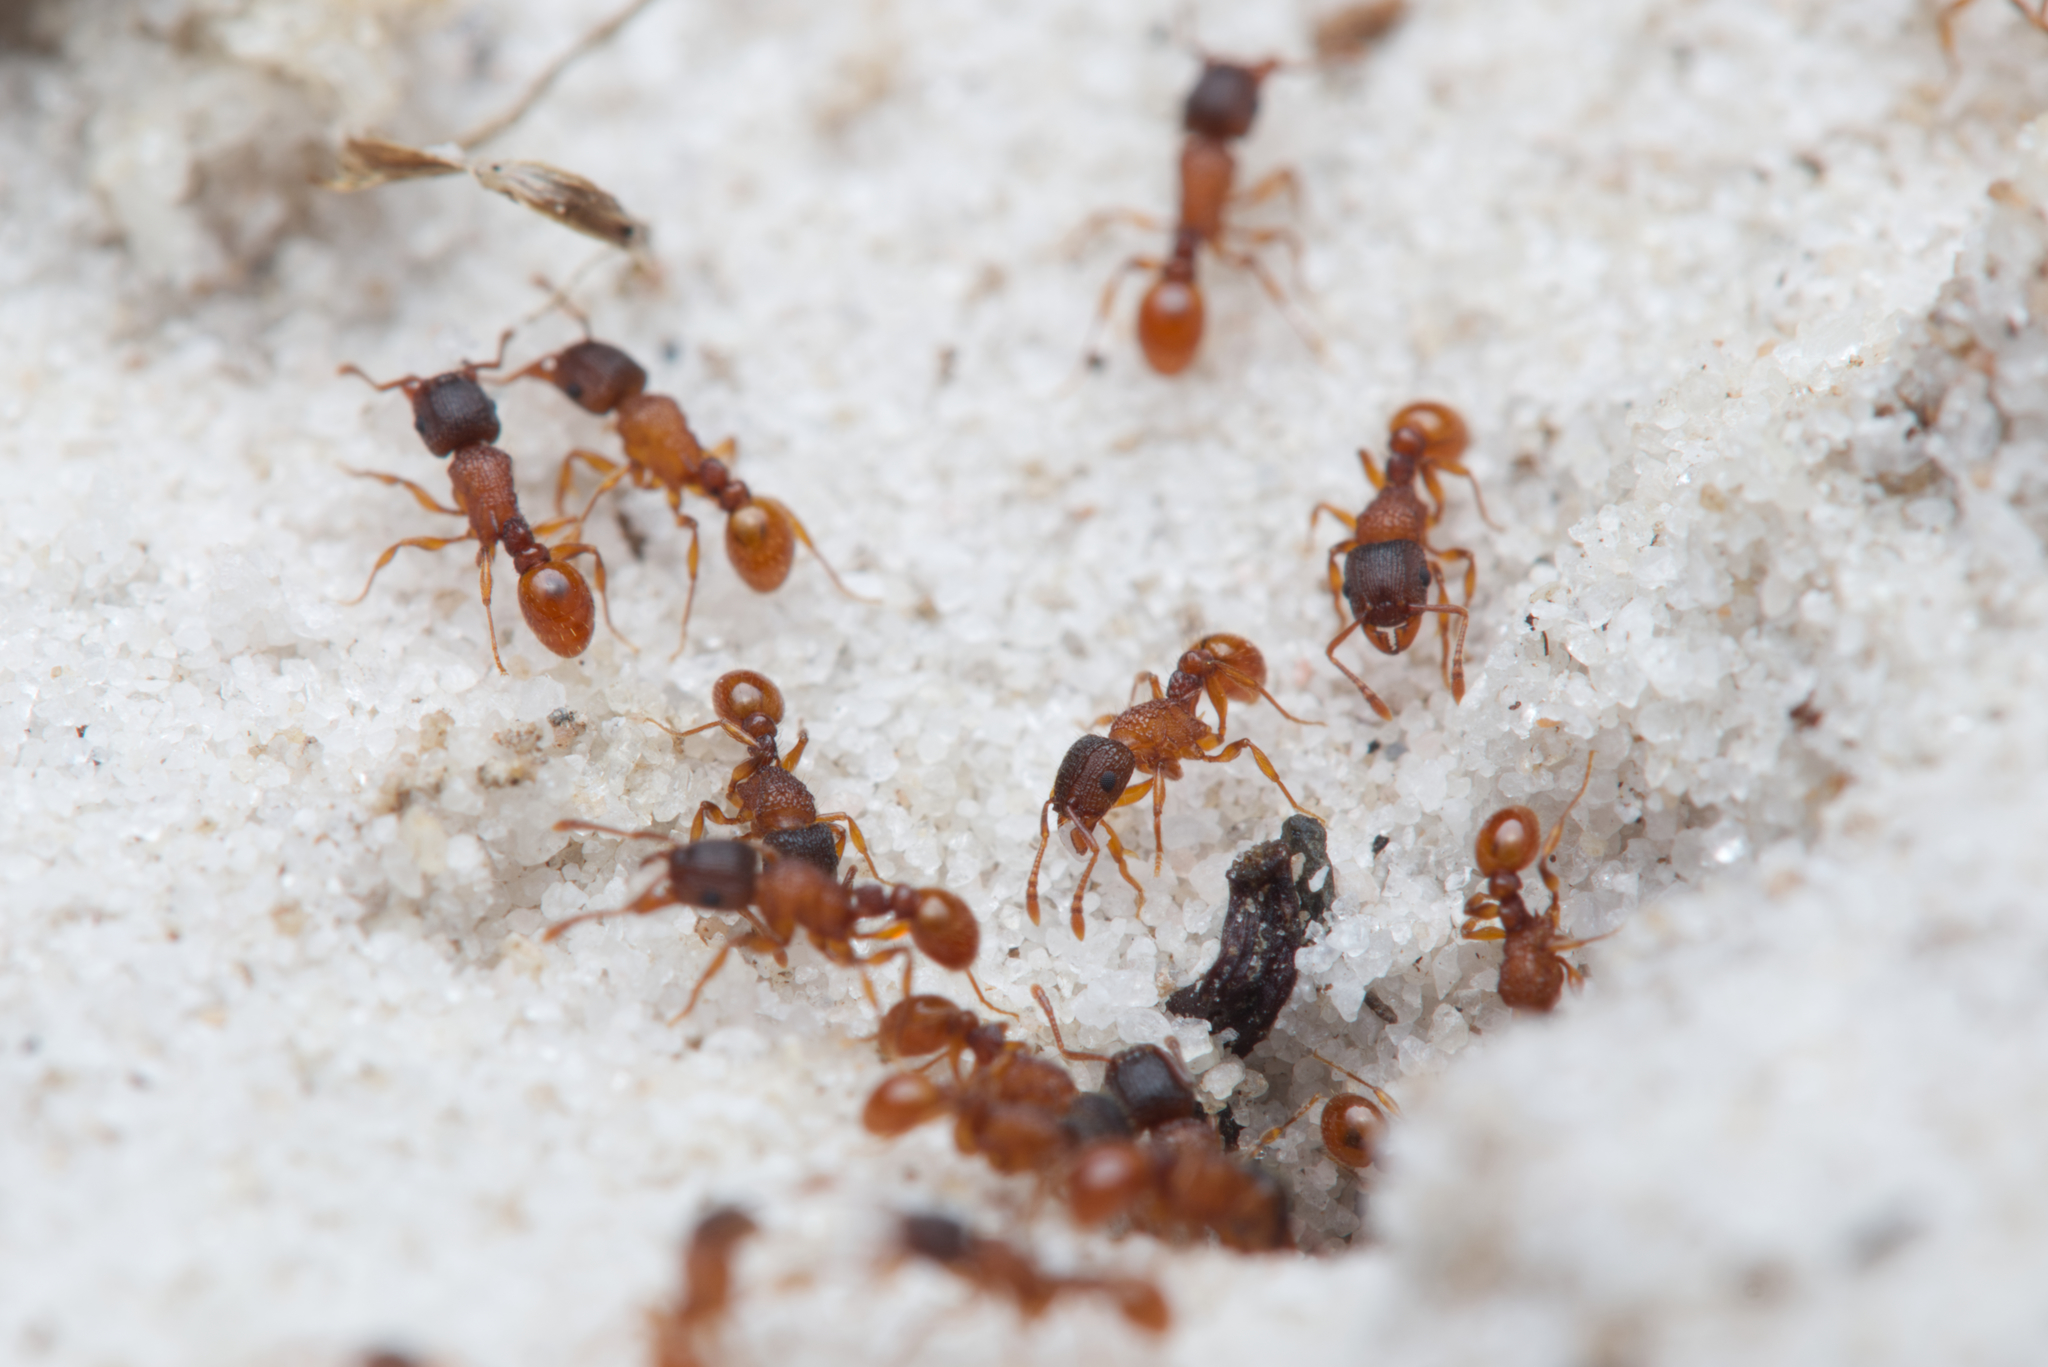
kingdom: Animalia
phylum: Arthropoda
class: Insecta
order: Hymenoptera
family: Formicidae
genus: Tetramorium
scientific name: Tetramorium fuscipes
